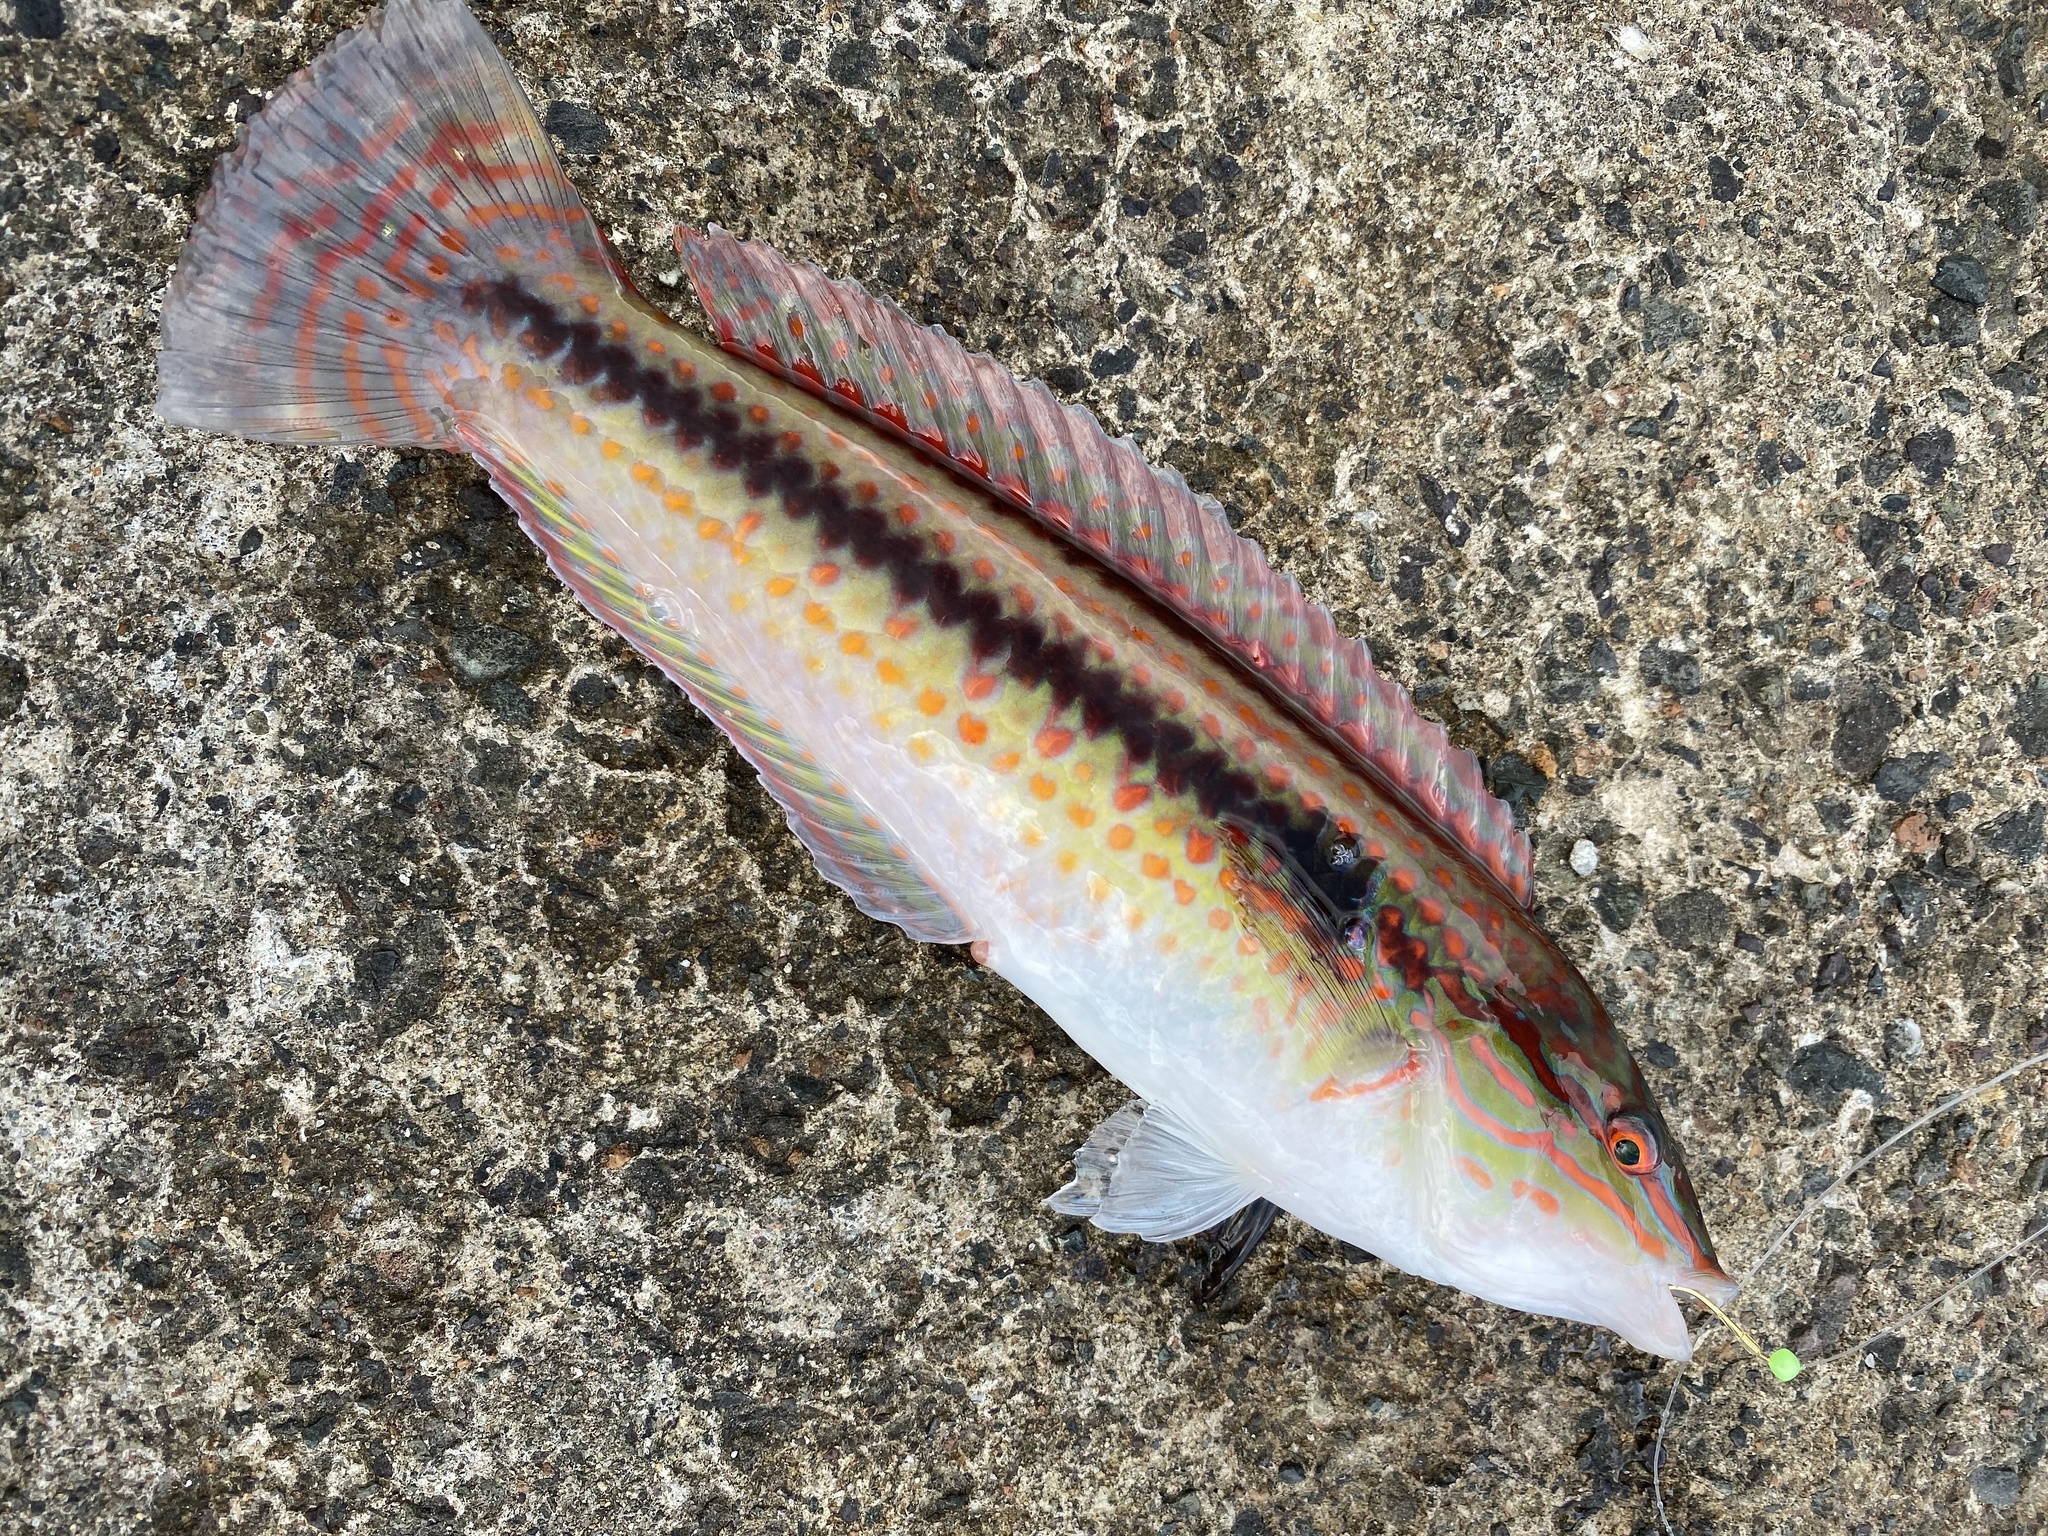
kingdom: Animalia
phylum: Chordata
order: Perciformes
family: Labridae
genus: Parajulis
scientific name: Parajulis poecilepterus
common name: Multicolorfin rainbowfish
